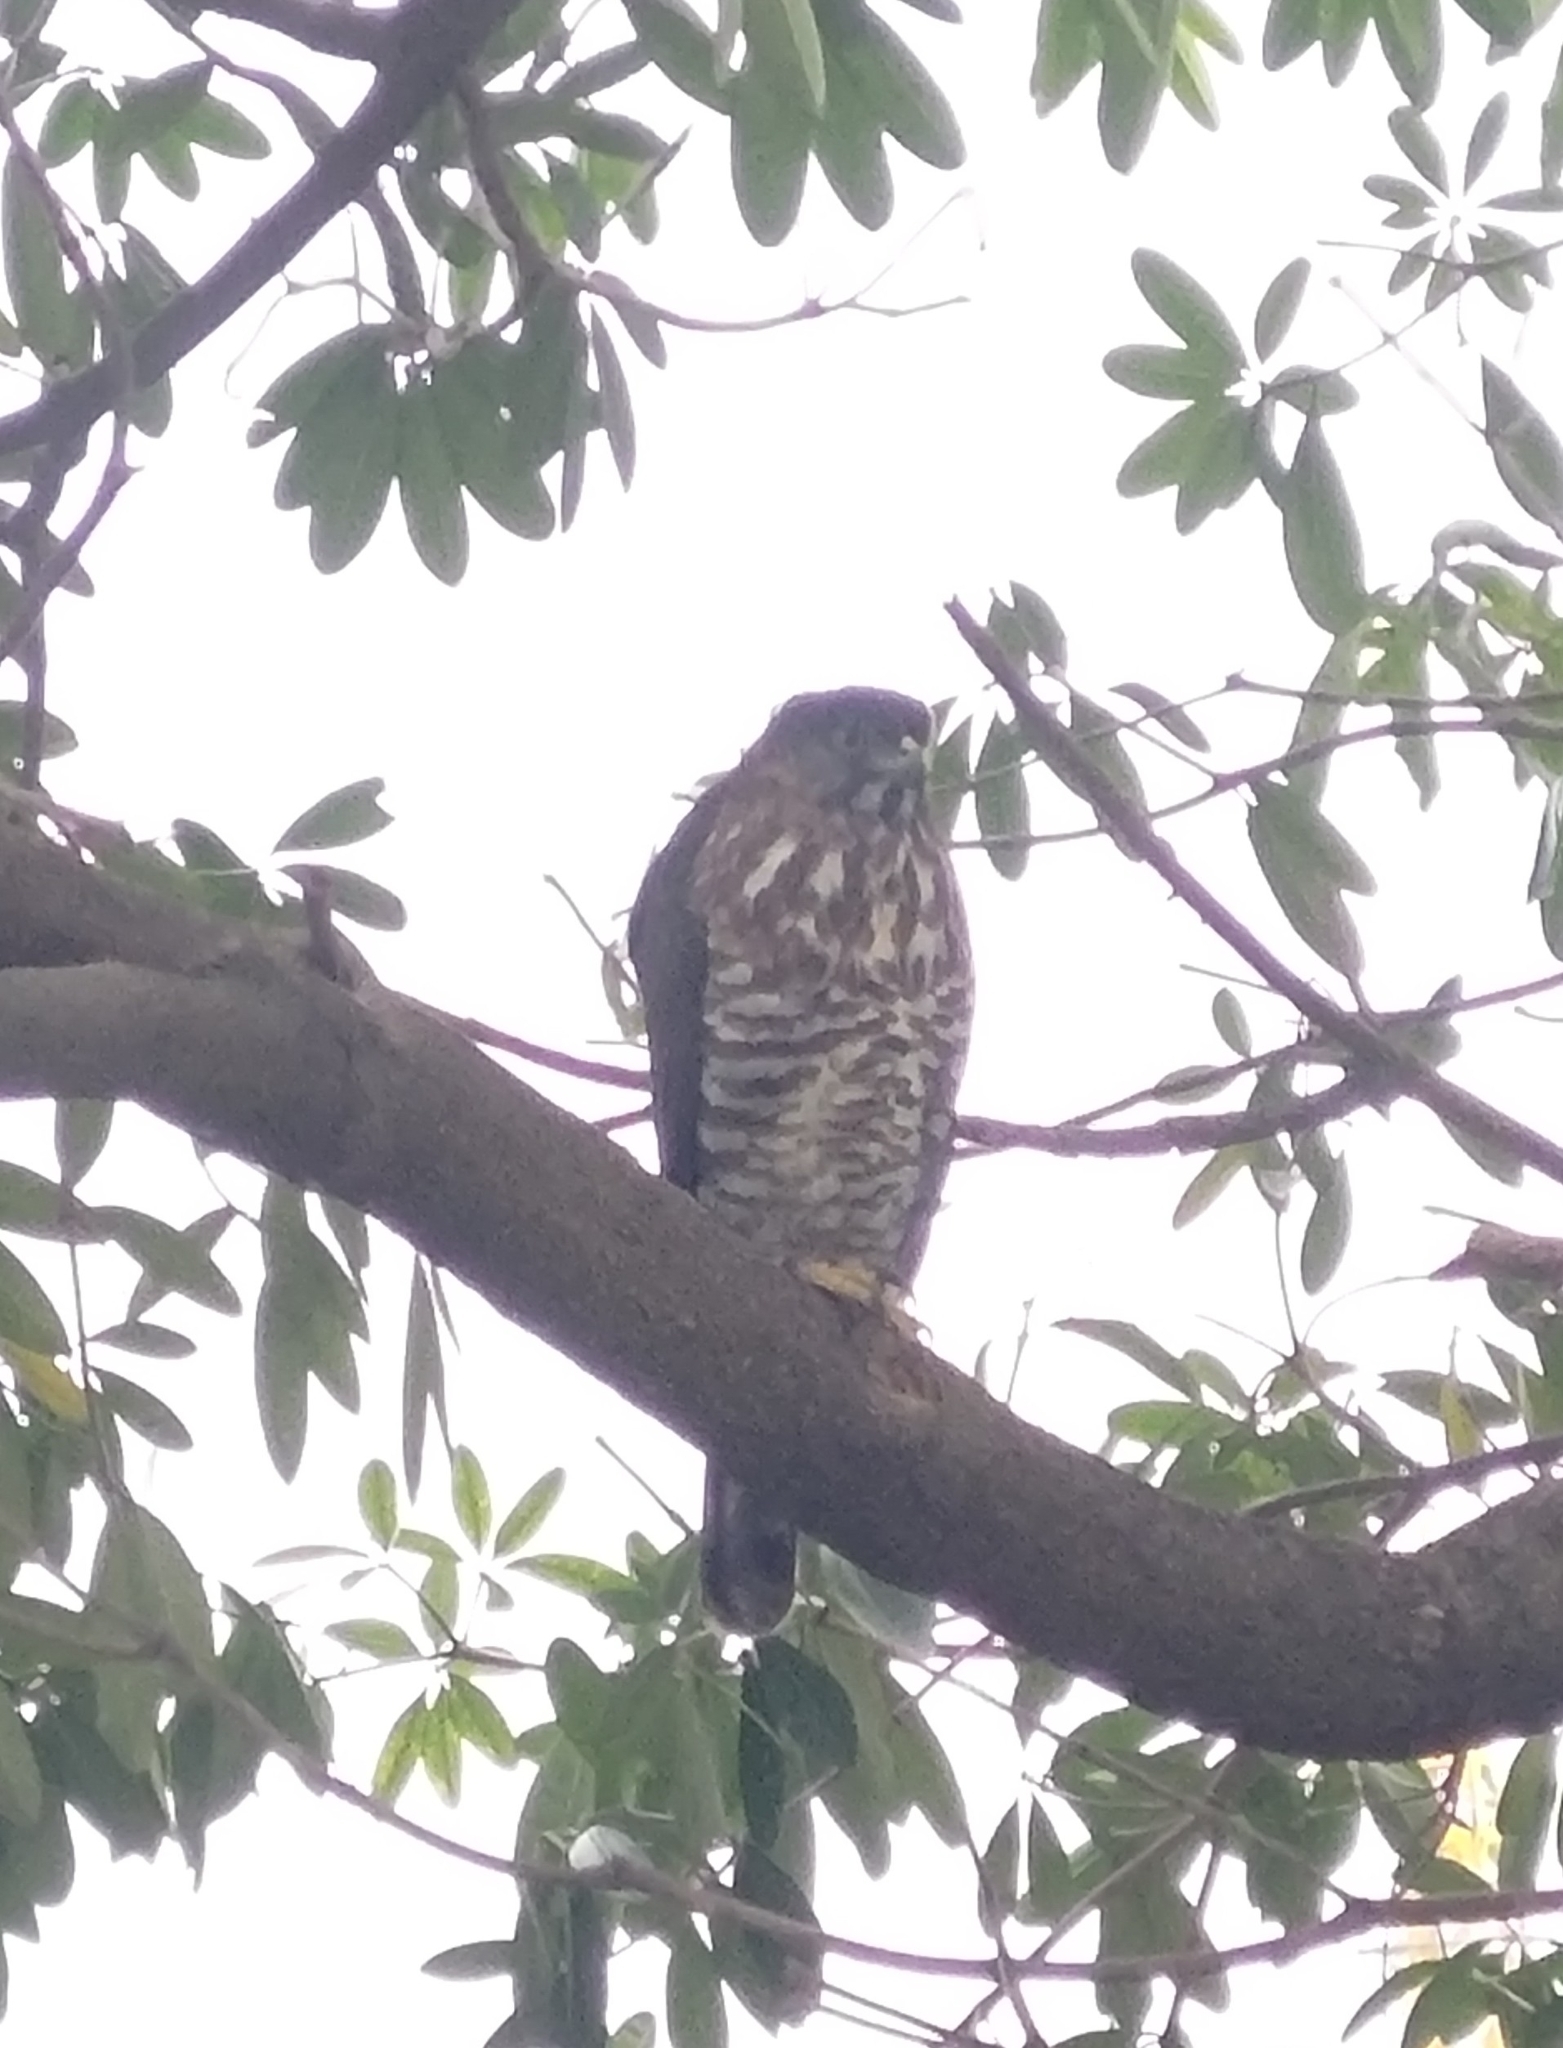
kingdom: Animalia
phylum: Chordata
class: Aves
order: Accipitriformes
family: Accipitridae
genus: Accipiter
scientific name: Accipiter trivirgatus
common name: Crested goshawk
